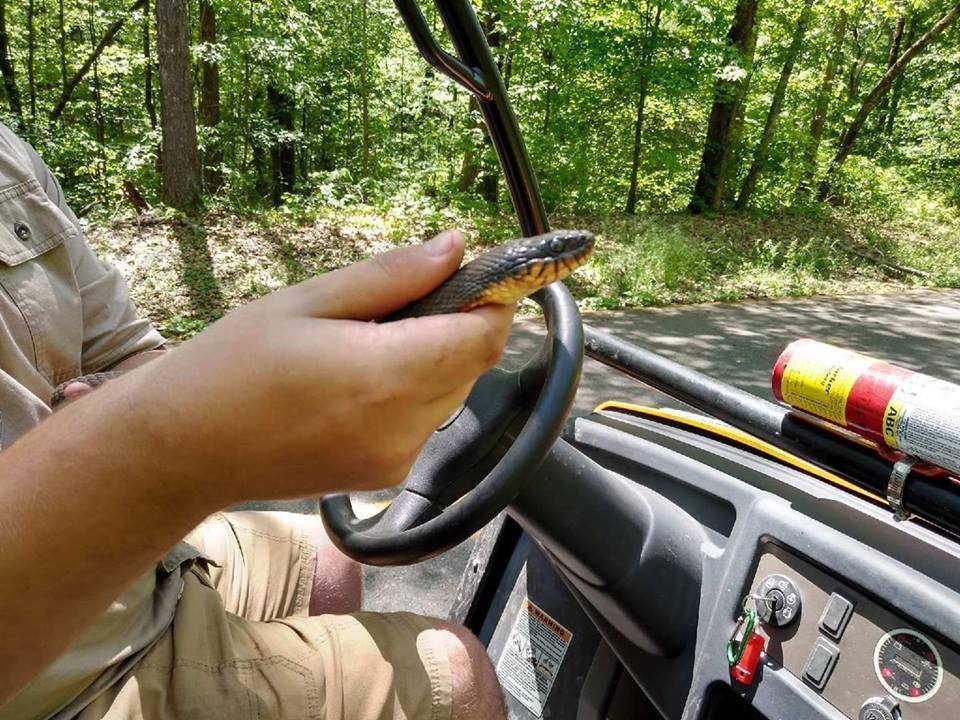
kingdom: Animalia
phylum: Chordata
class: Squamata
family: Colubridae
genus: Nerodia
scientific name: Nerodia erythrogaster
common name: Plainbelly water snake
